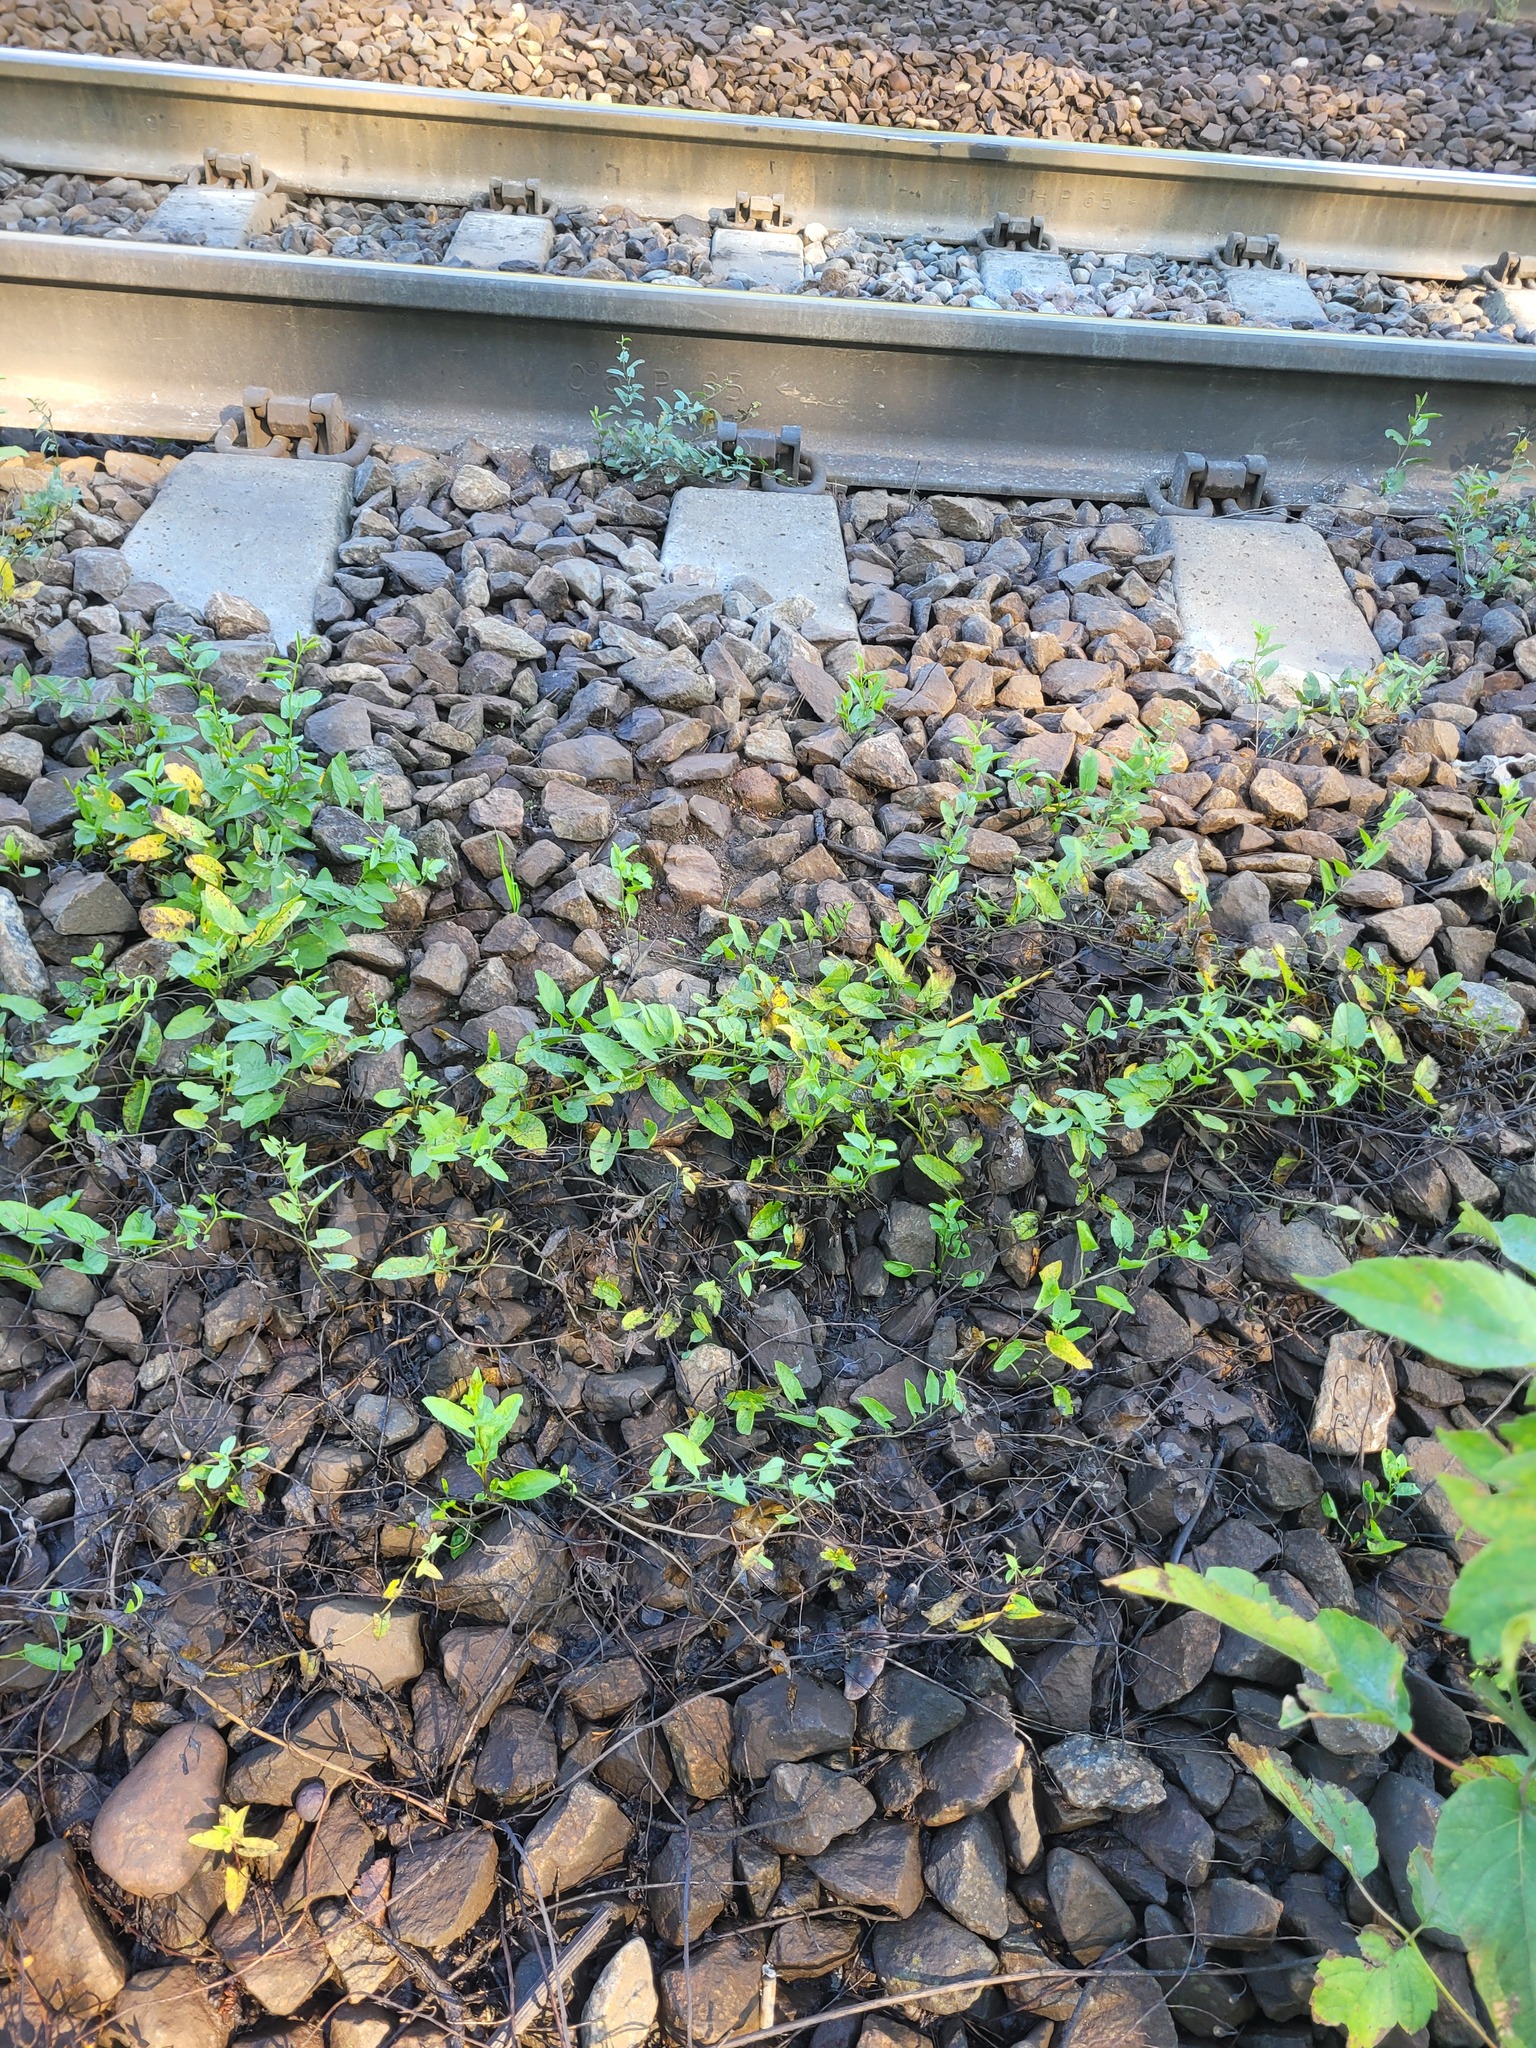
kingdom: Plantae
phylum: Tracheophyta
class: Magnoliopsida
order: Solanales
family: Convolvulaceae
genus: Convolvulus
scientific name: Convolvulus arvensis
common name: Field bindweed
